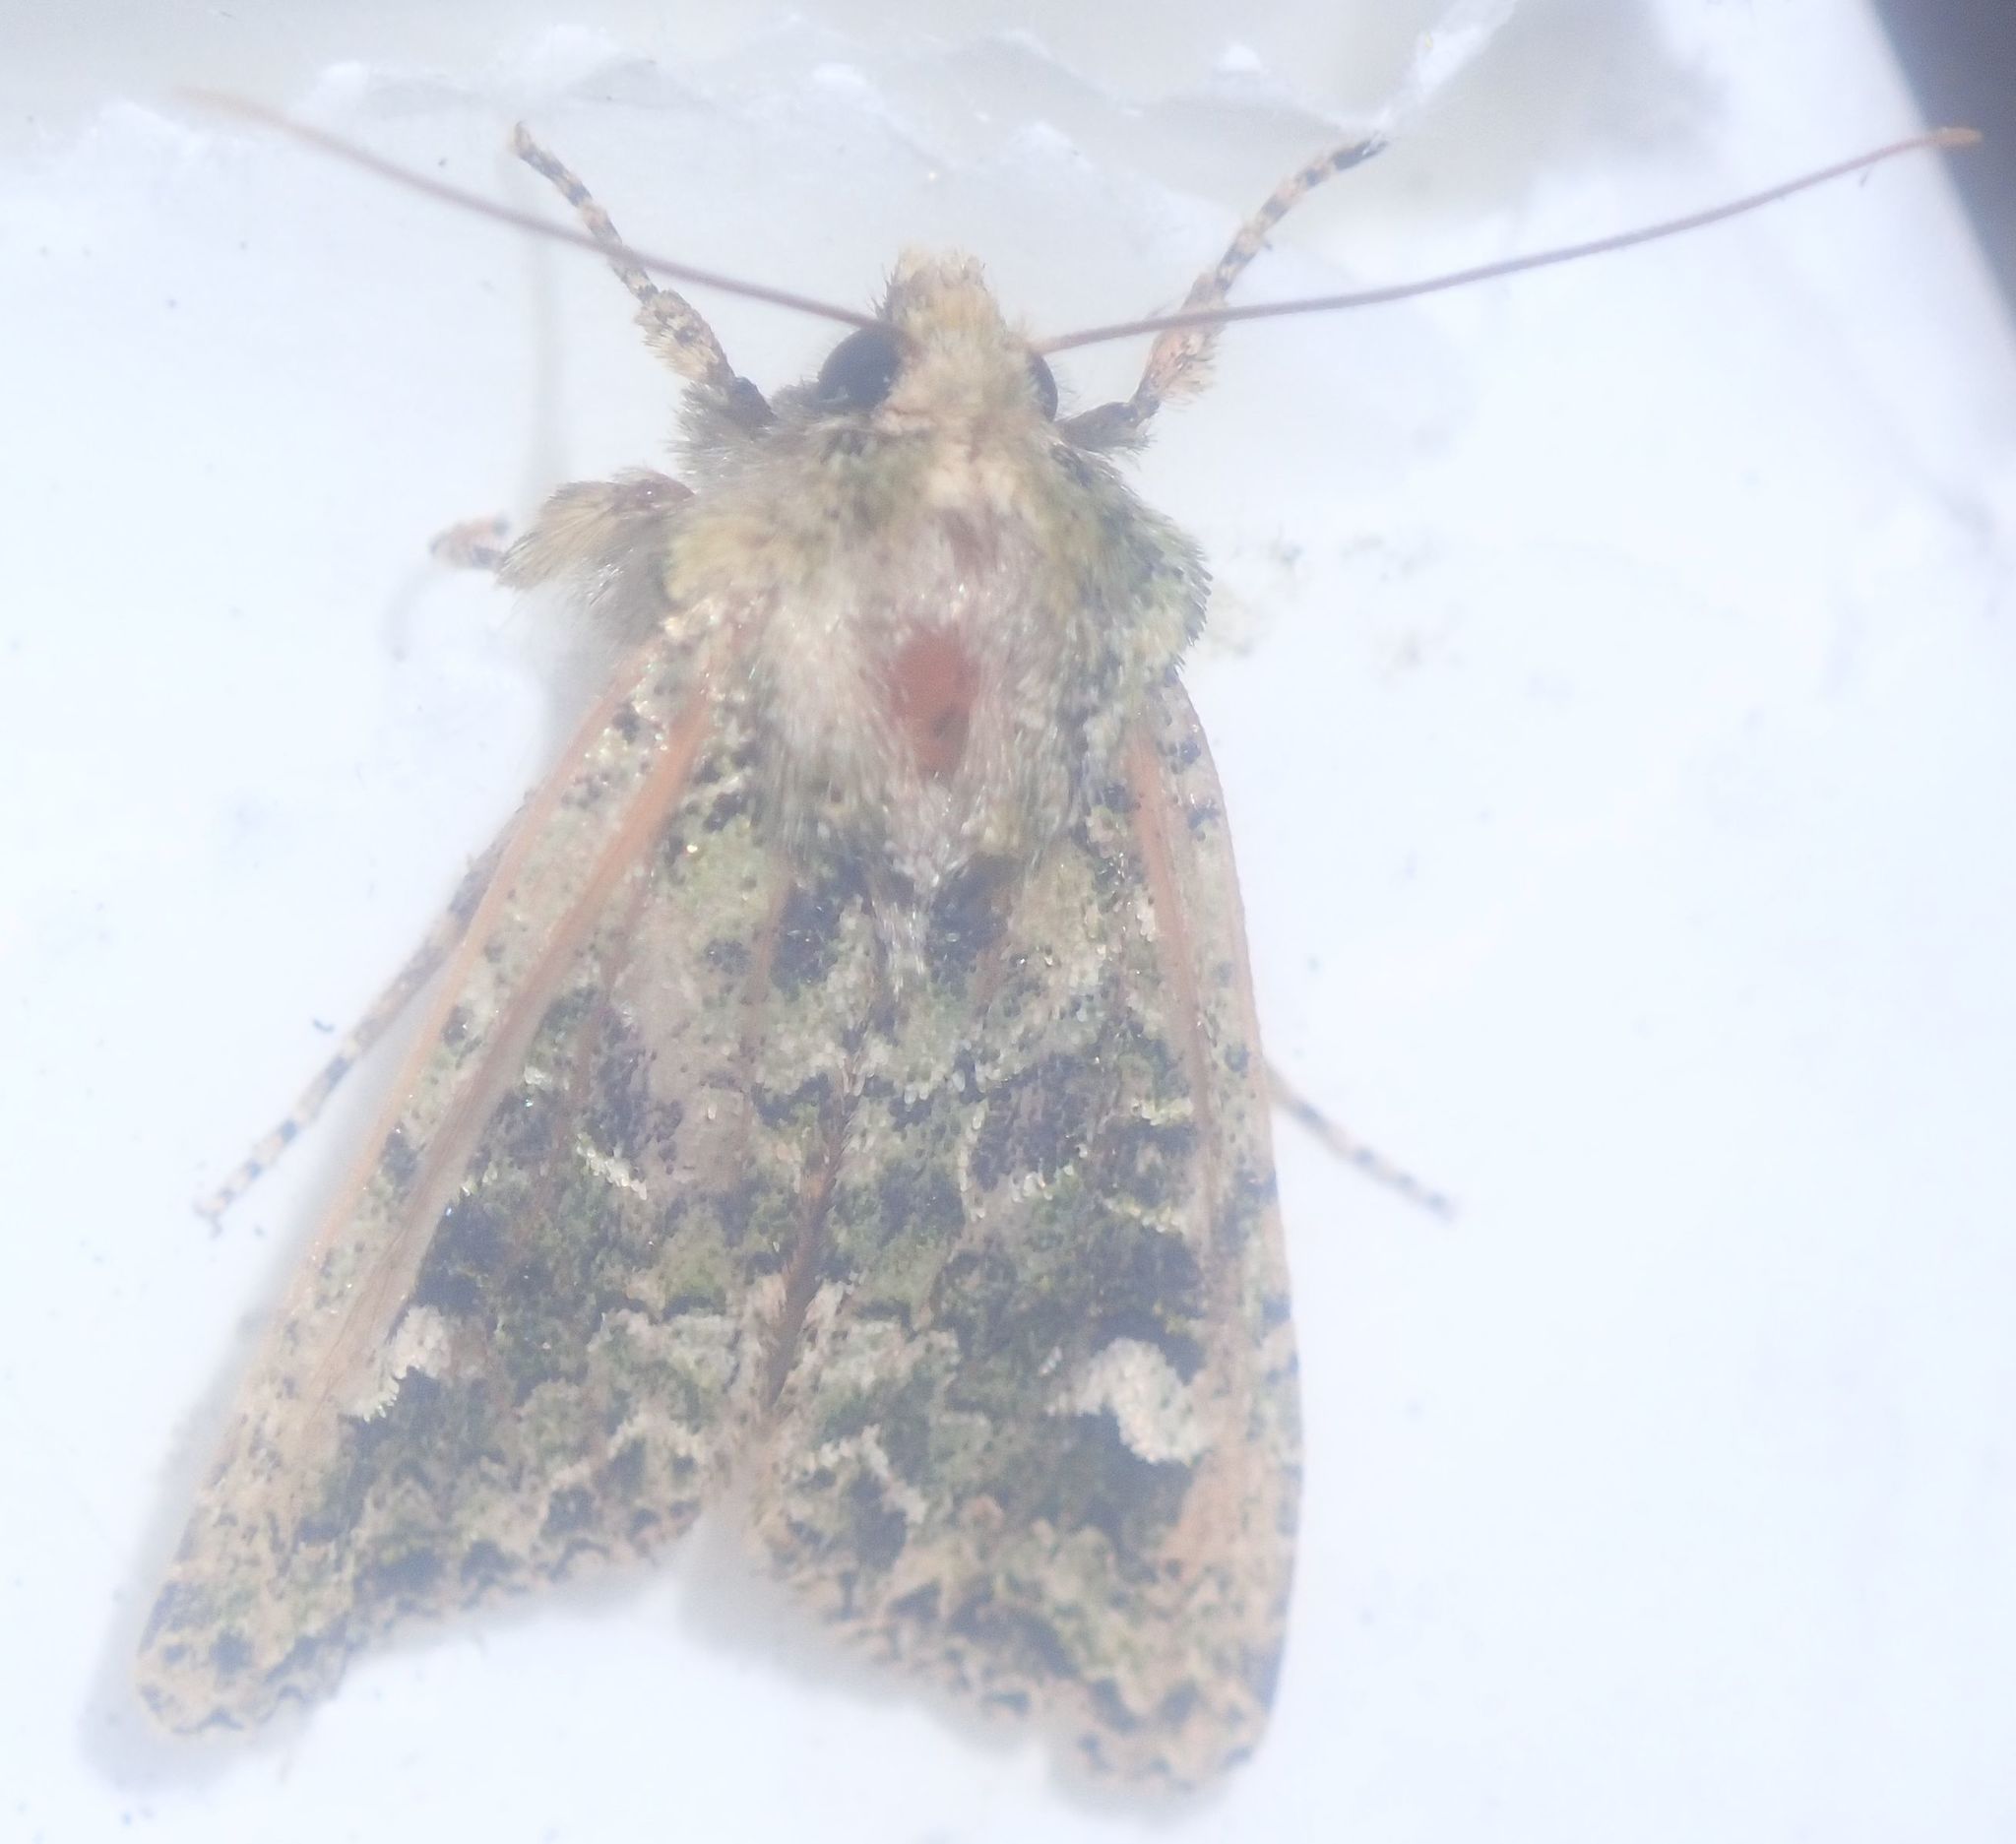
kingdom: Animalia
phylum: Arthropoda
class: Insecta
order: Lepidoptera
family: Noctuidae
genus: Ichneutica
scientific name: Ichneutica
